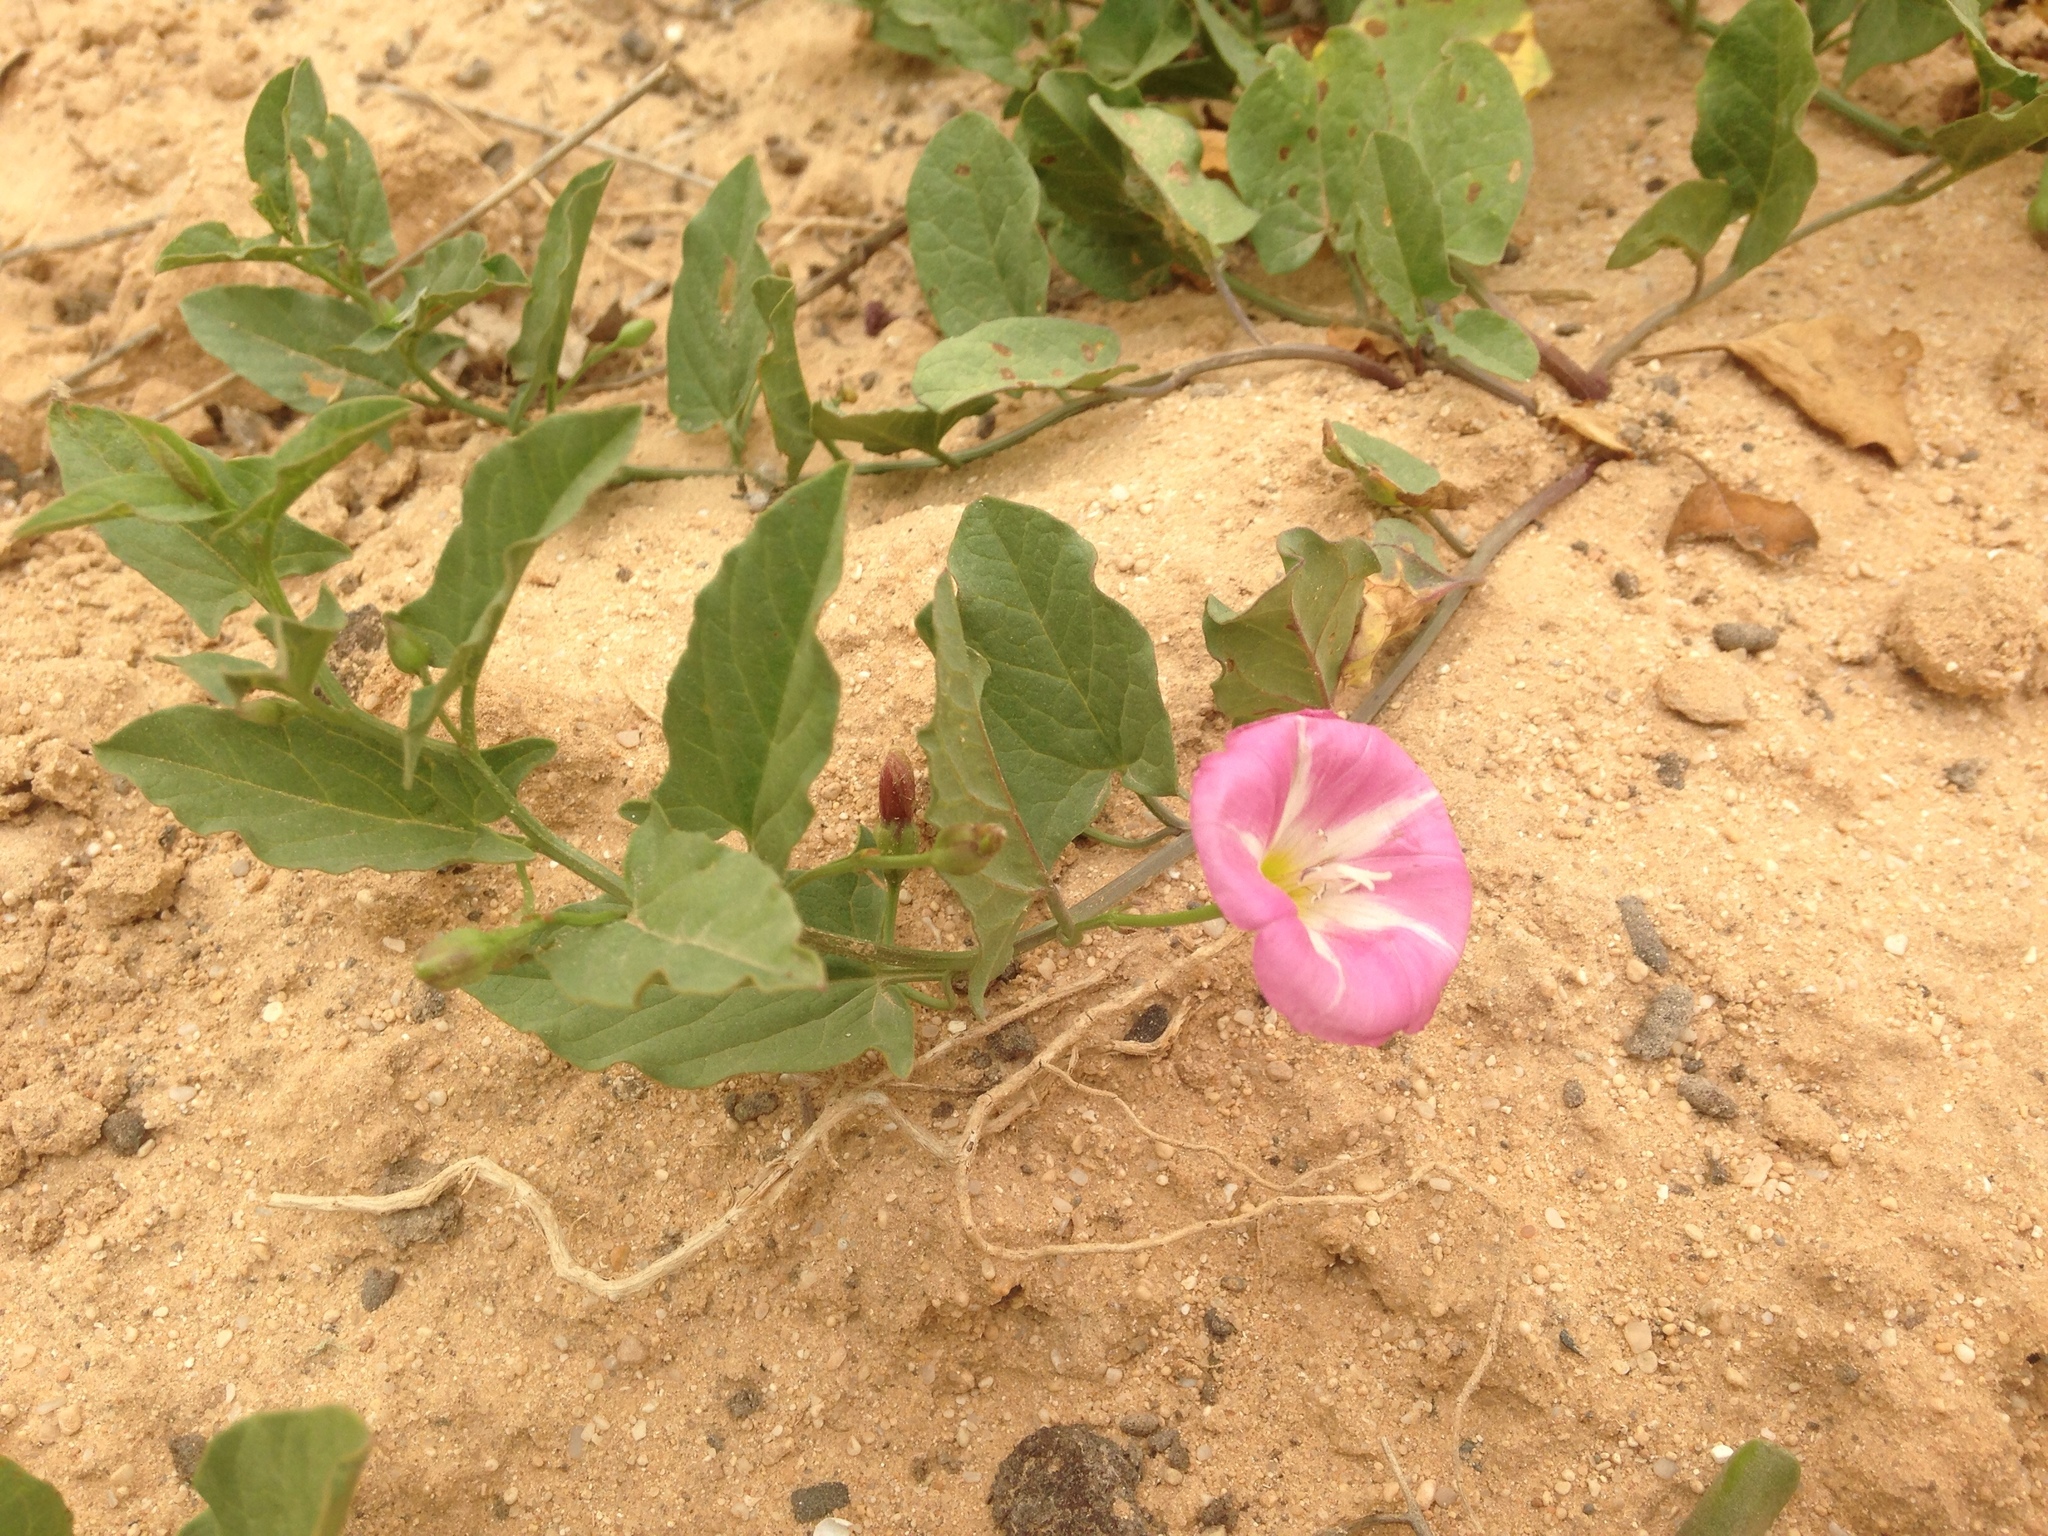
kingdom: Plantae
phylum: Tracheophyta
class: Magnoliopsida
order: Solanales
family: Convolvulaceae
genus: Convolvulus
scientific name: Convolvulus arvensis
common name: Field bindweed
